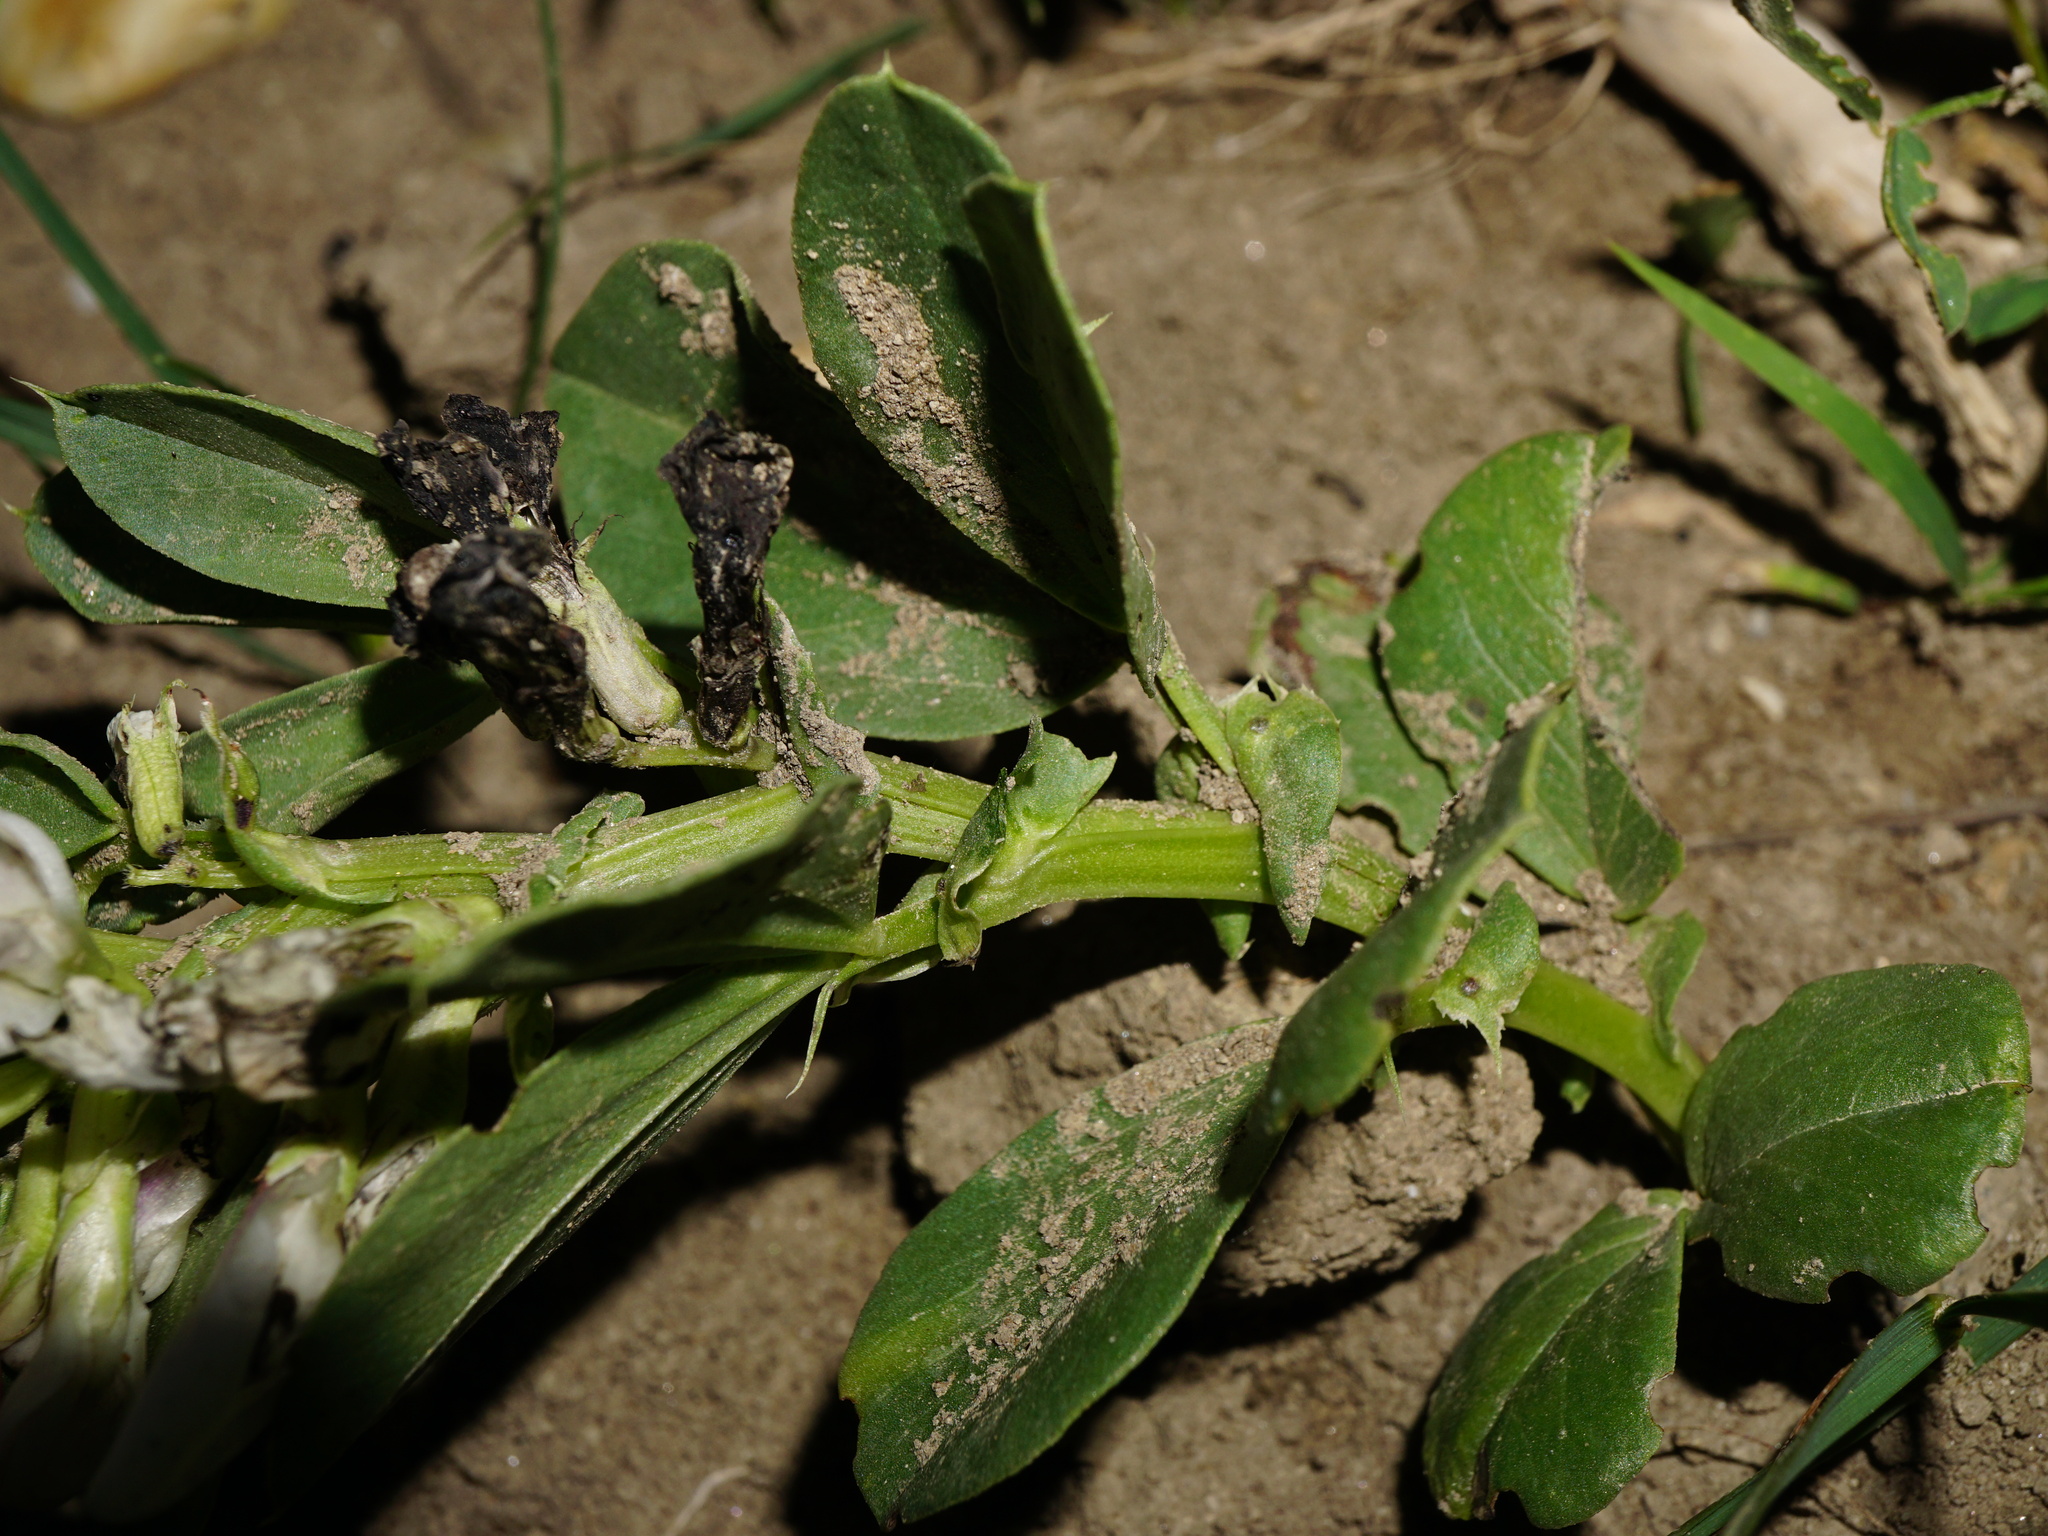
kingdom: Plantae
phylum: Tracheophyta
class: Magnoliopsida
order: Fabales
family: Fabaceae
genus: Vicia
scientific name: Vicia faba
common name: Broad bean
